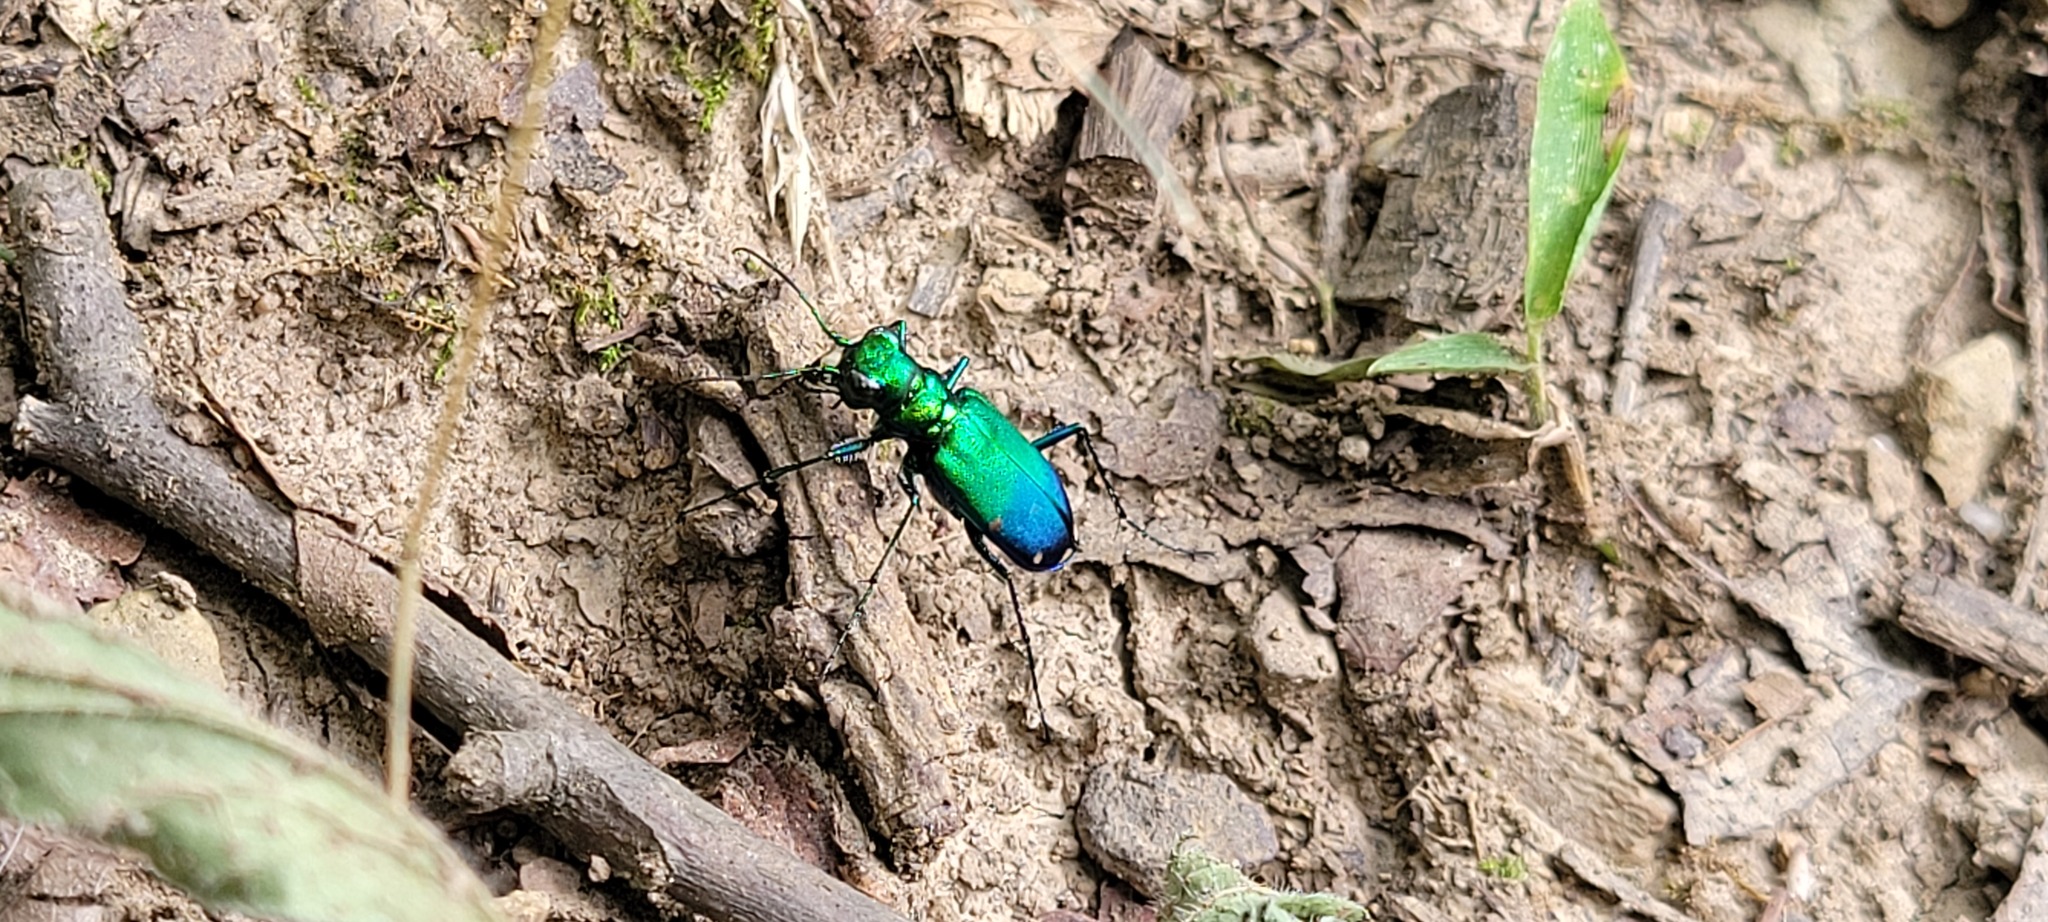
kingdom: Animalia
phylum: Arthropoda
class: Insecta
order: Coleoptera
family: Carabidae
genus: Cicindela
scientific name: Cicindela sexguttata
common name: Six-spotted tiger beetle
